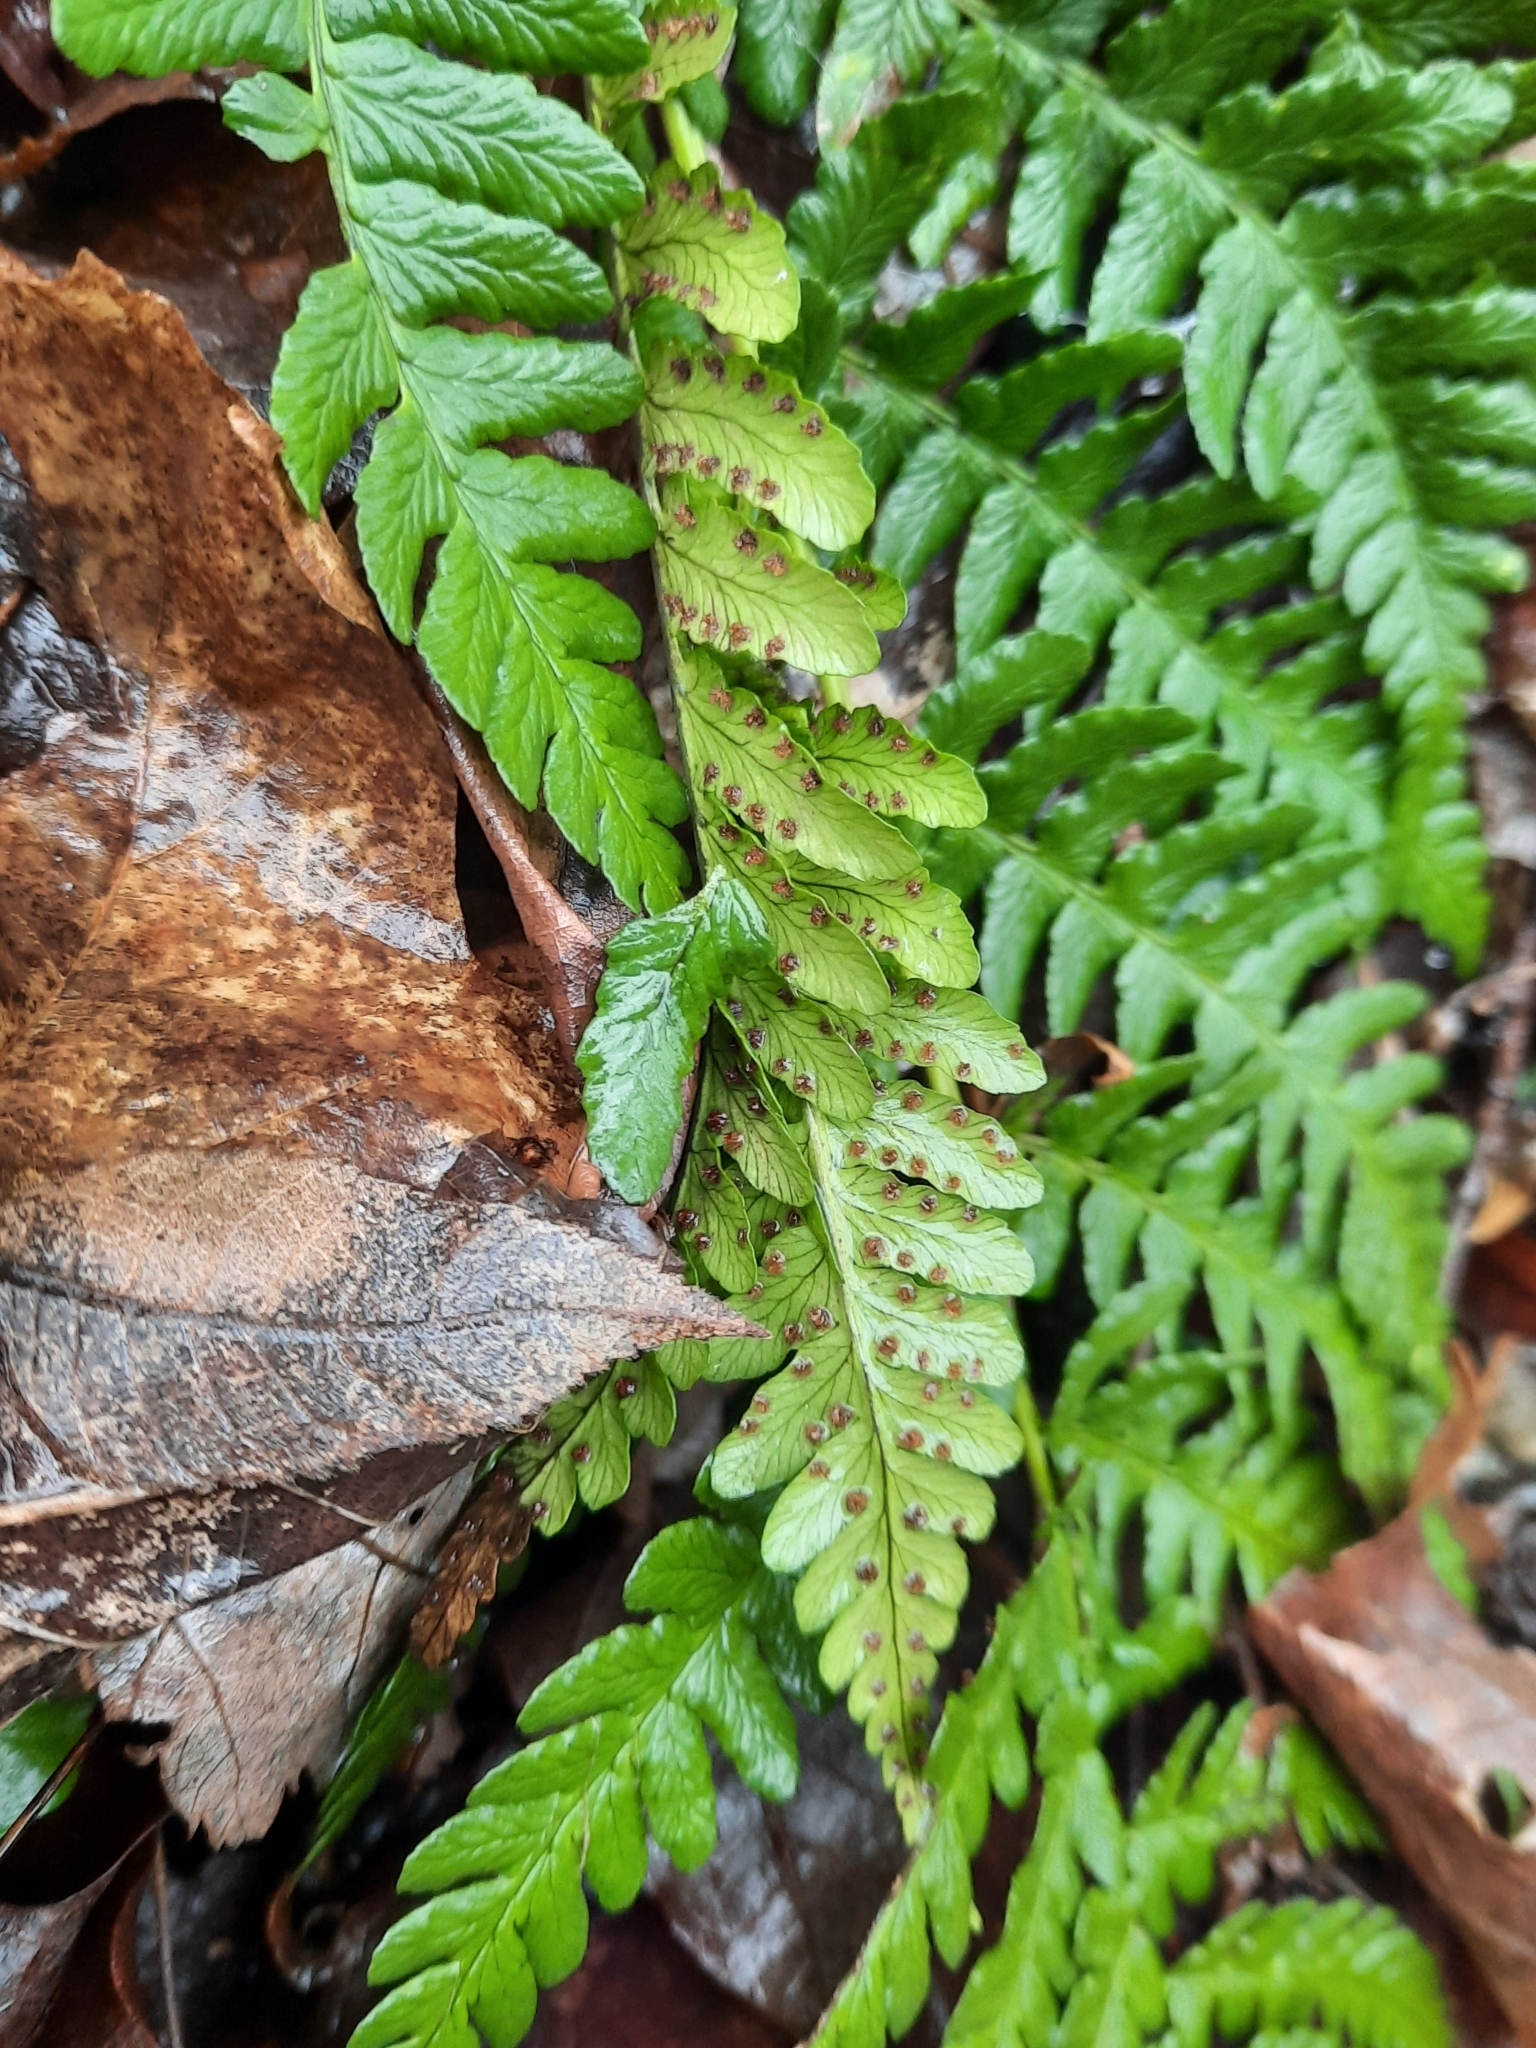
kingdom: Plantae
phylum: Tracheophyta
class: Polypodiopsida
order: Polypodiales
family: Dryopteridaceae
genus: Dryopteris
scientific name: Dryopteris marginalis
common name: Marginal wood fern
